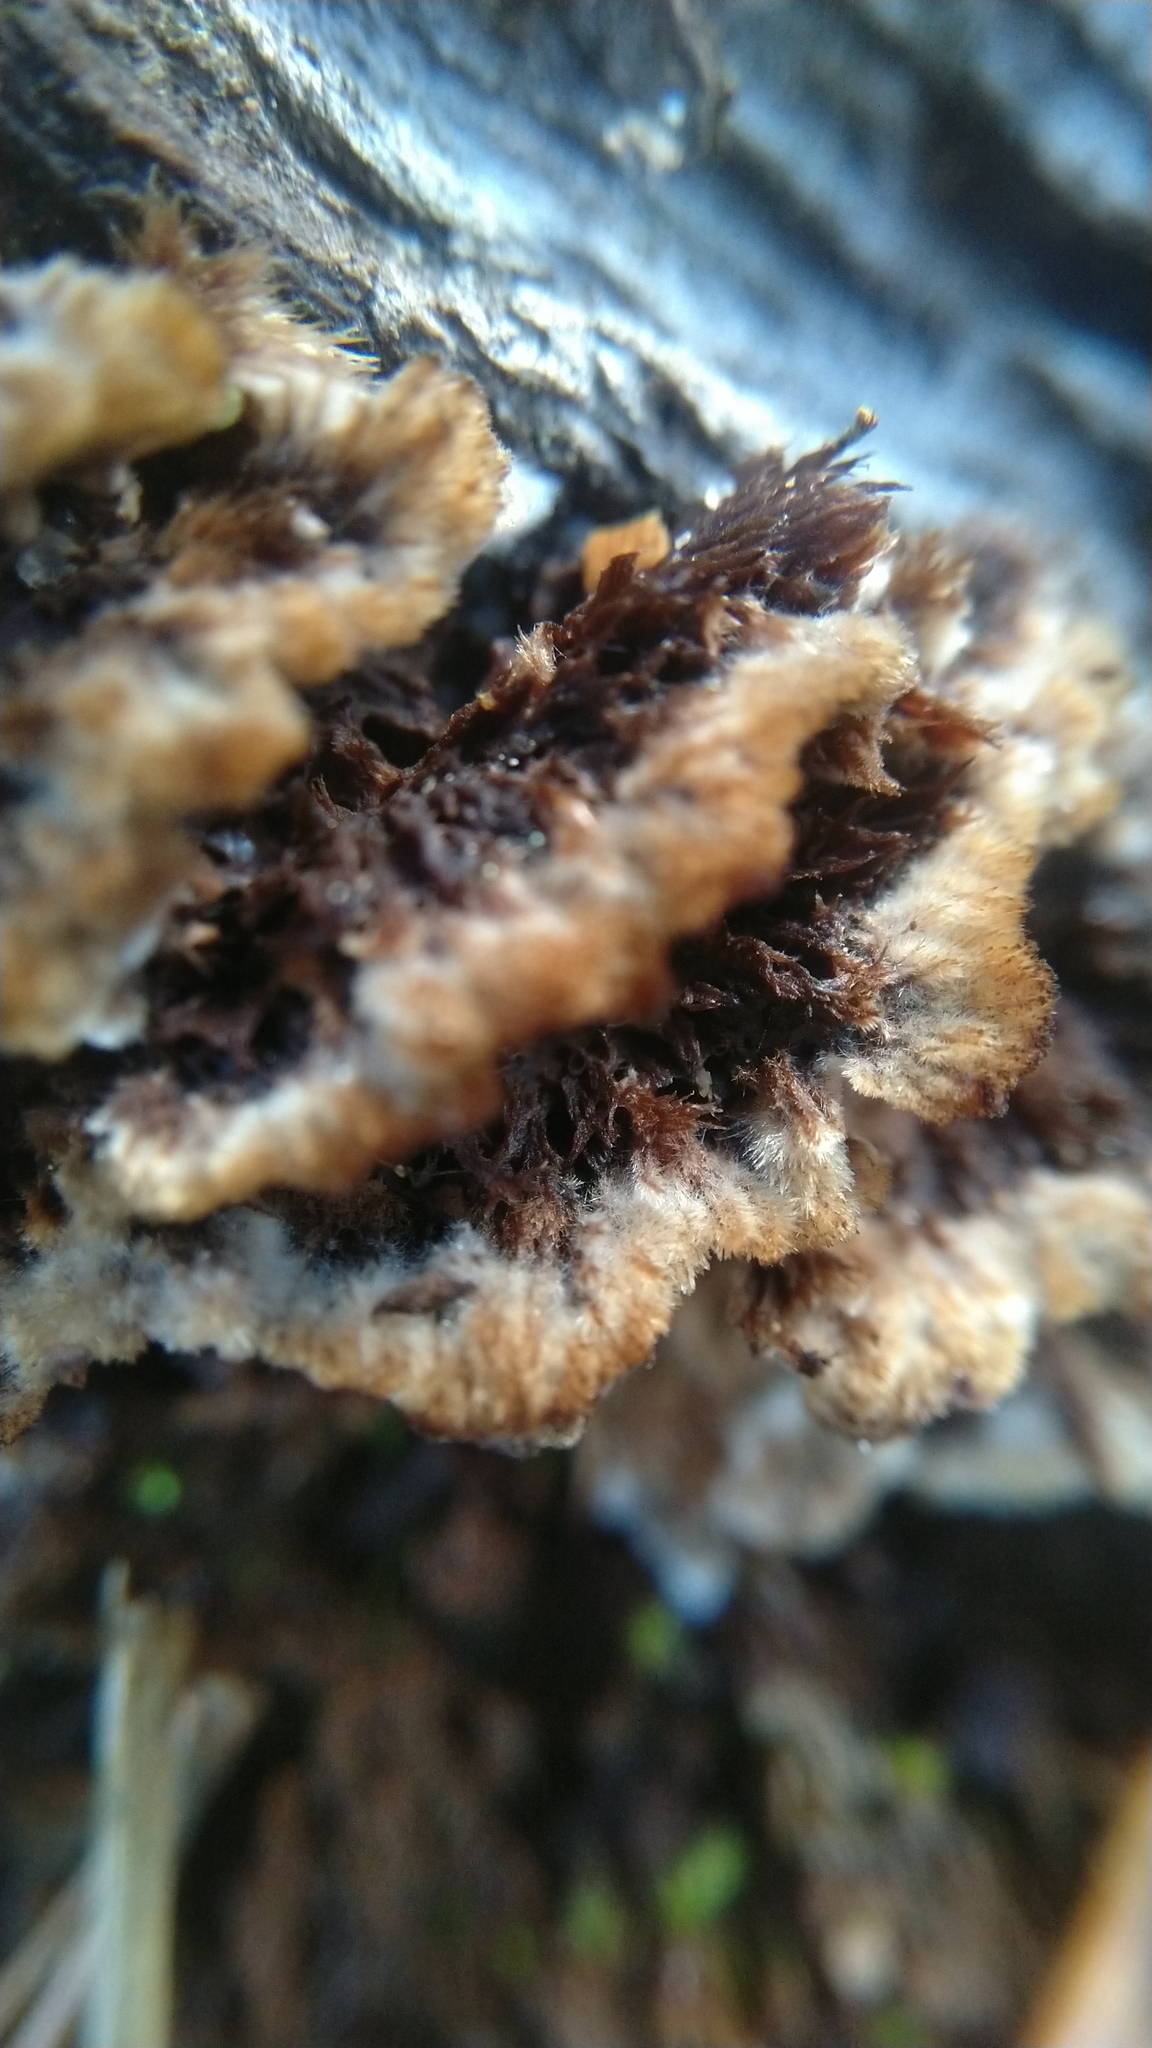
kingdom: Fungi
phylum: Basidiomycota
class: Agaricomycetes
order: Thelephorales
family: Thelephoraceae
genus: Thelephora
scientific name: Thelephora terrestris
